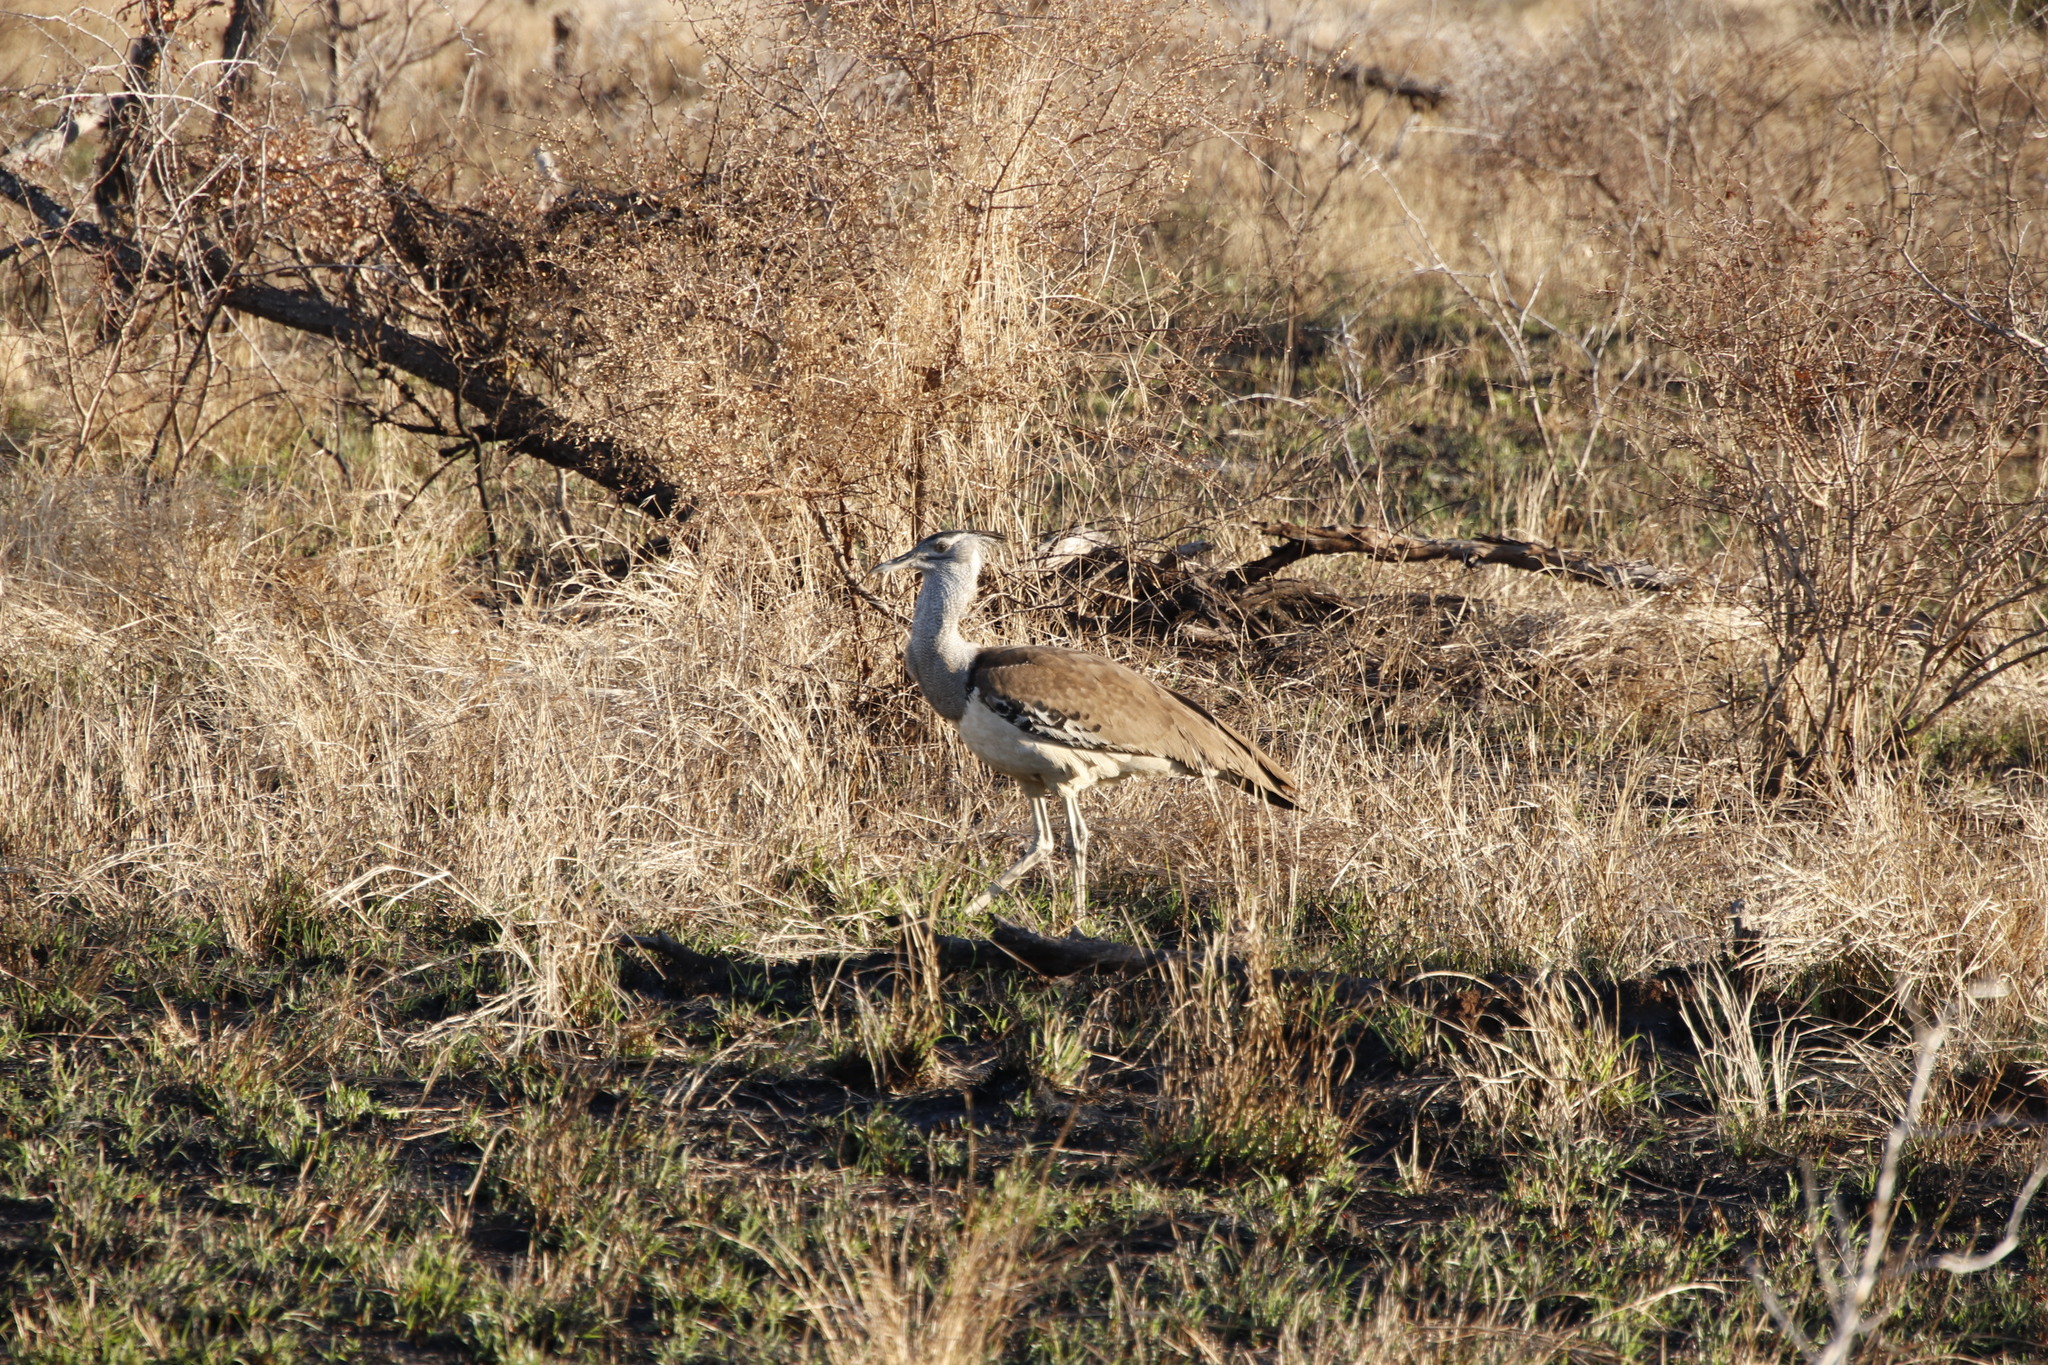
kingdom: Animalia
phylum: Chordata
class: Aves
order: Otidiformes
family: Otididae
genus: Ardeotis
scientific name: Ardeotis kori
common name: Kori bustard
